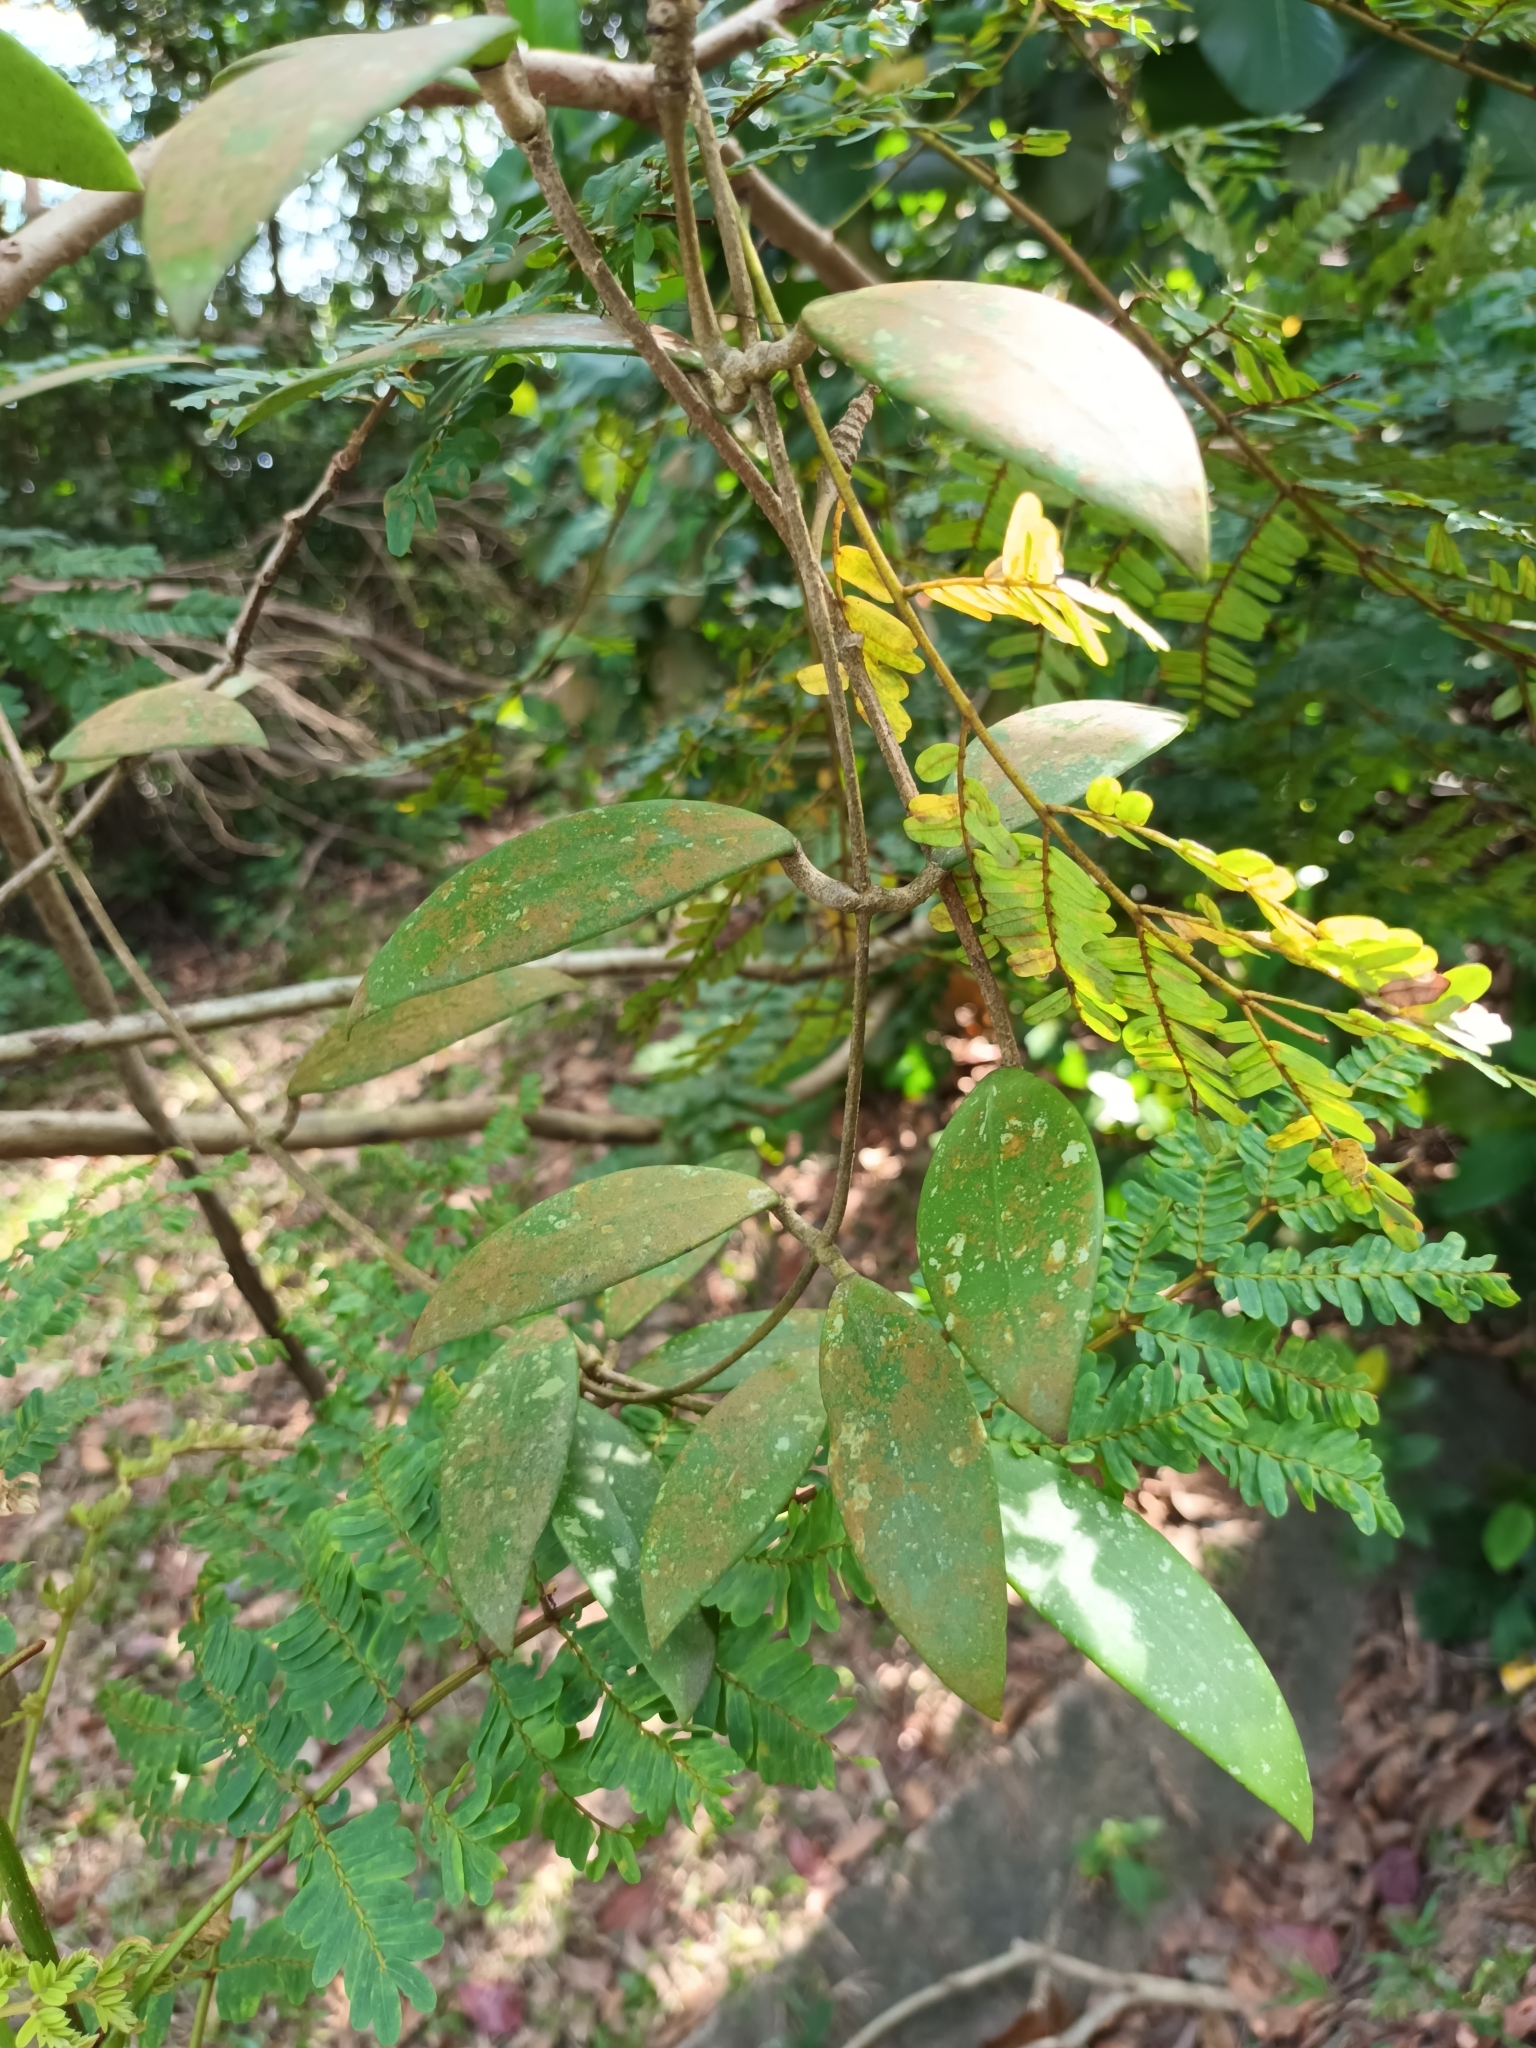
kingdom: Plantae
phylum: Tracheophyta
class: Magnoliopsida
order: Gentianales
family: Apocynaceae
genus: Hoya
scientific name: Hoya verticillata
